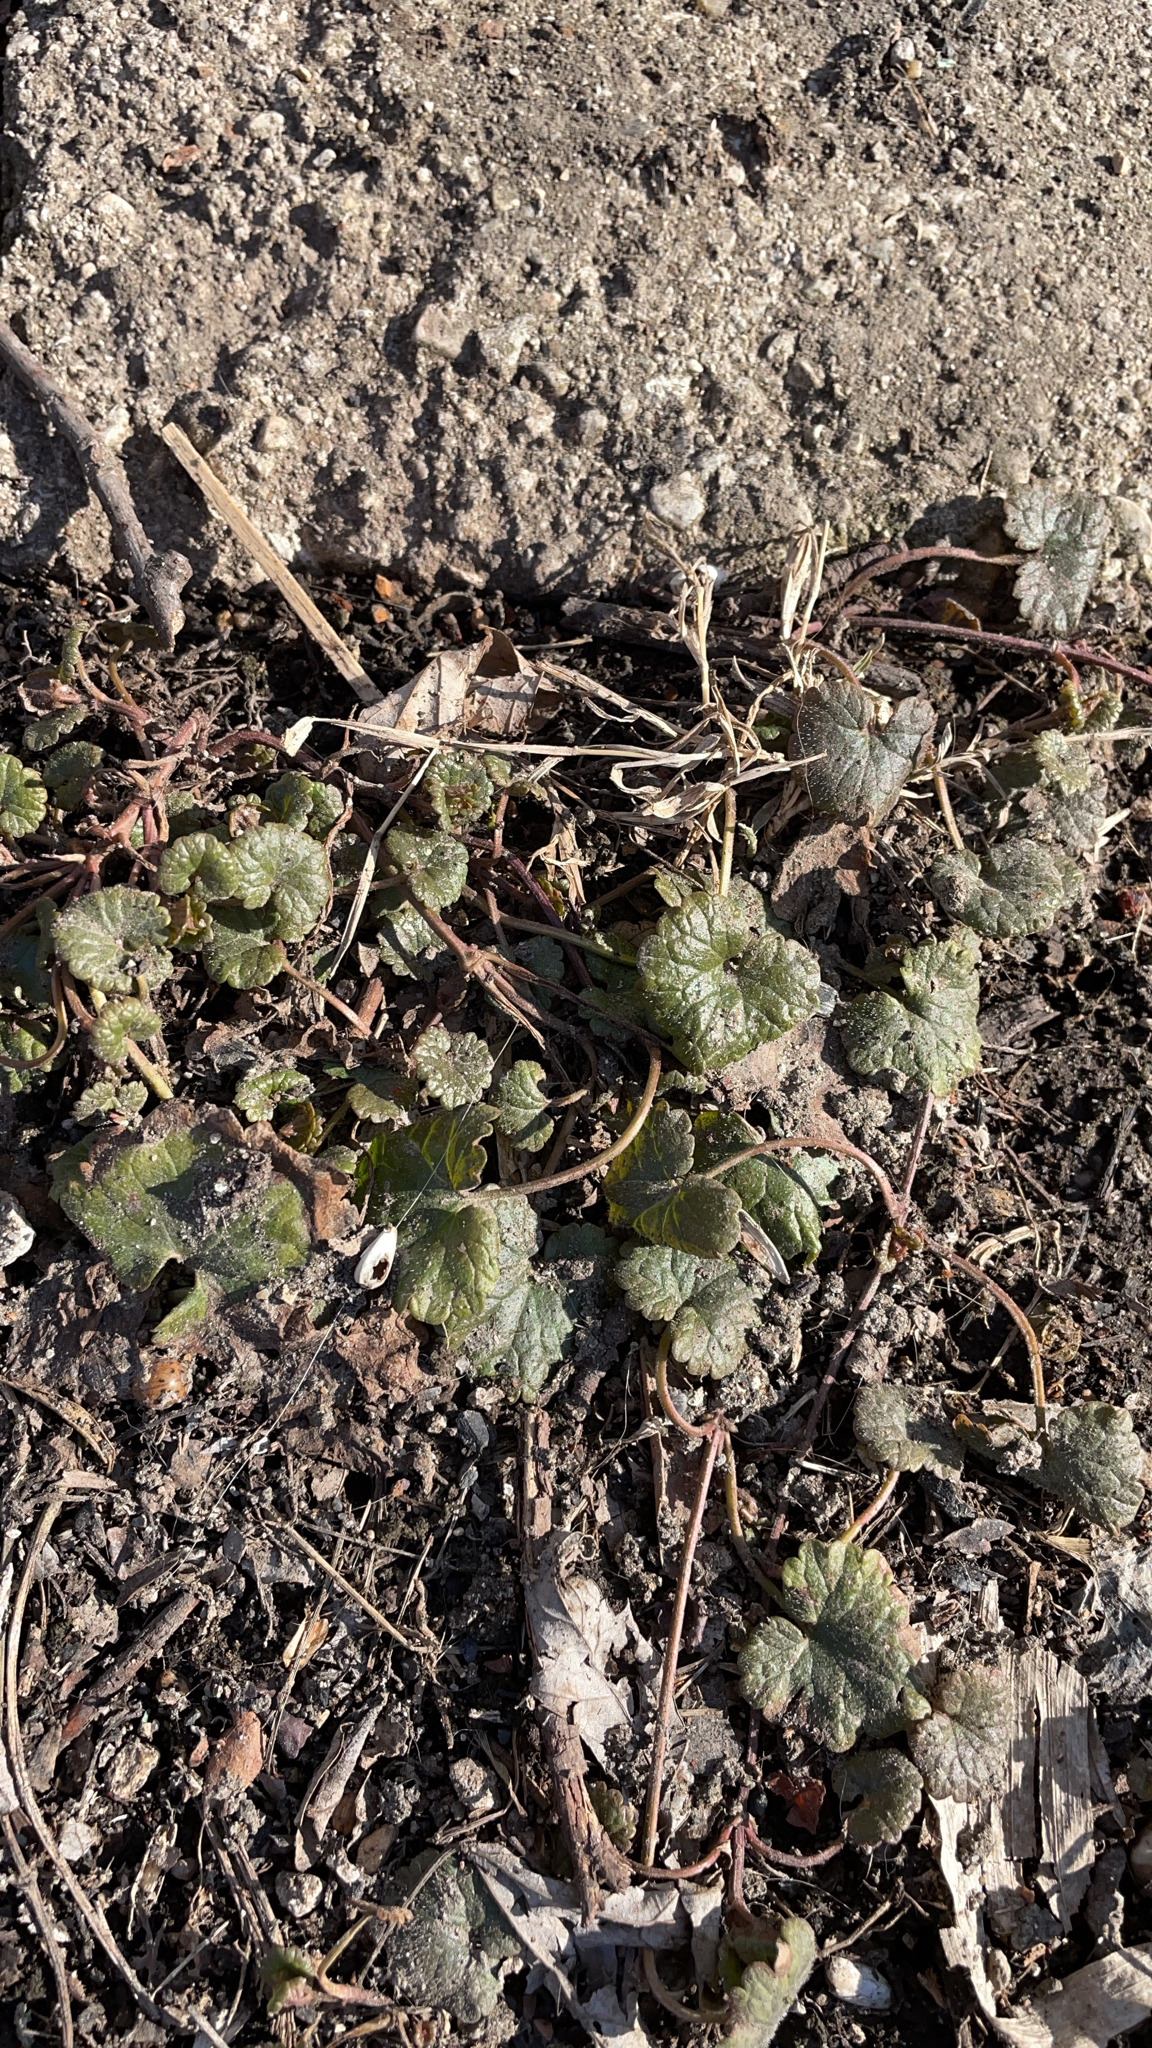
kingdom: Plantae
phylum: Tracheophyta
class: Magnoliopsida
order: Lamiales
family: Lamiaceae
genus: Glechoma
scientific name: Glechoma hederacea
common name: Ground ivy
